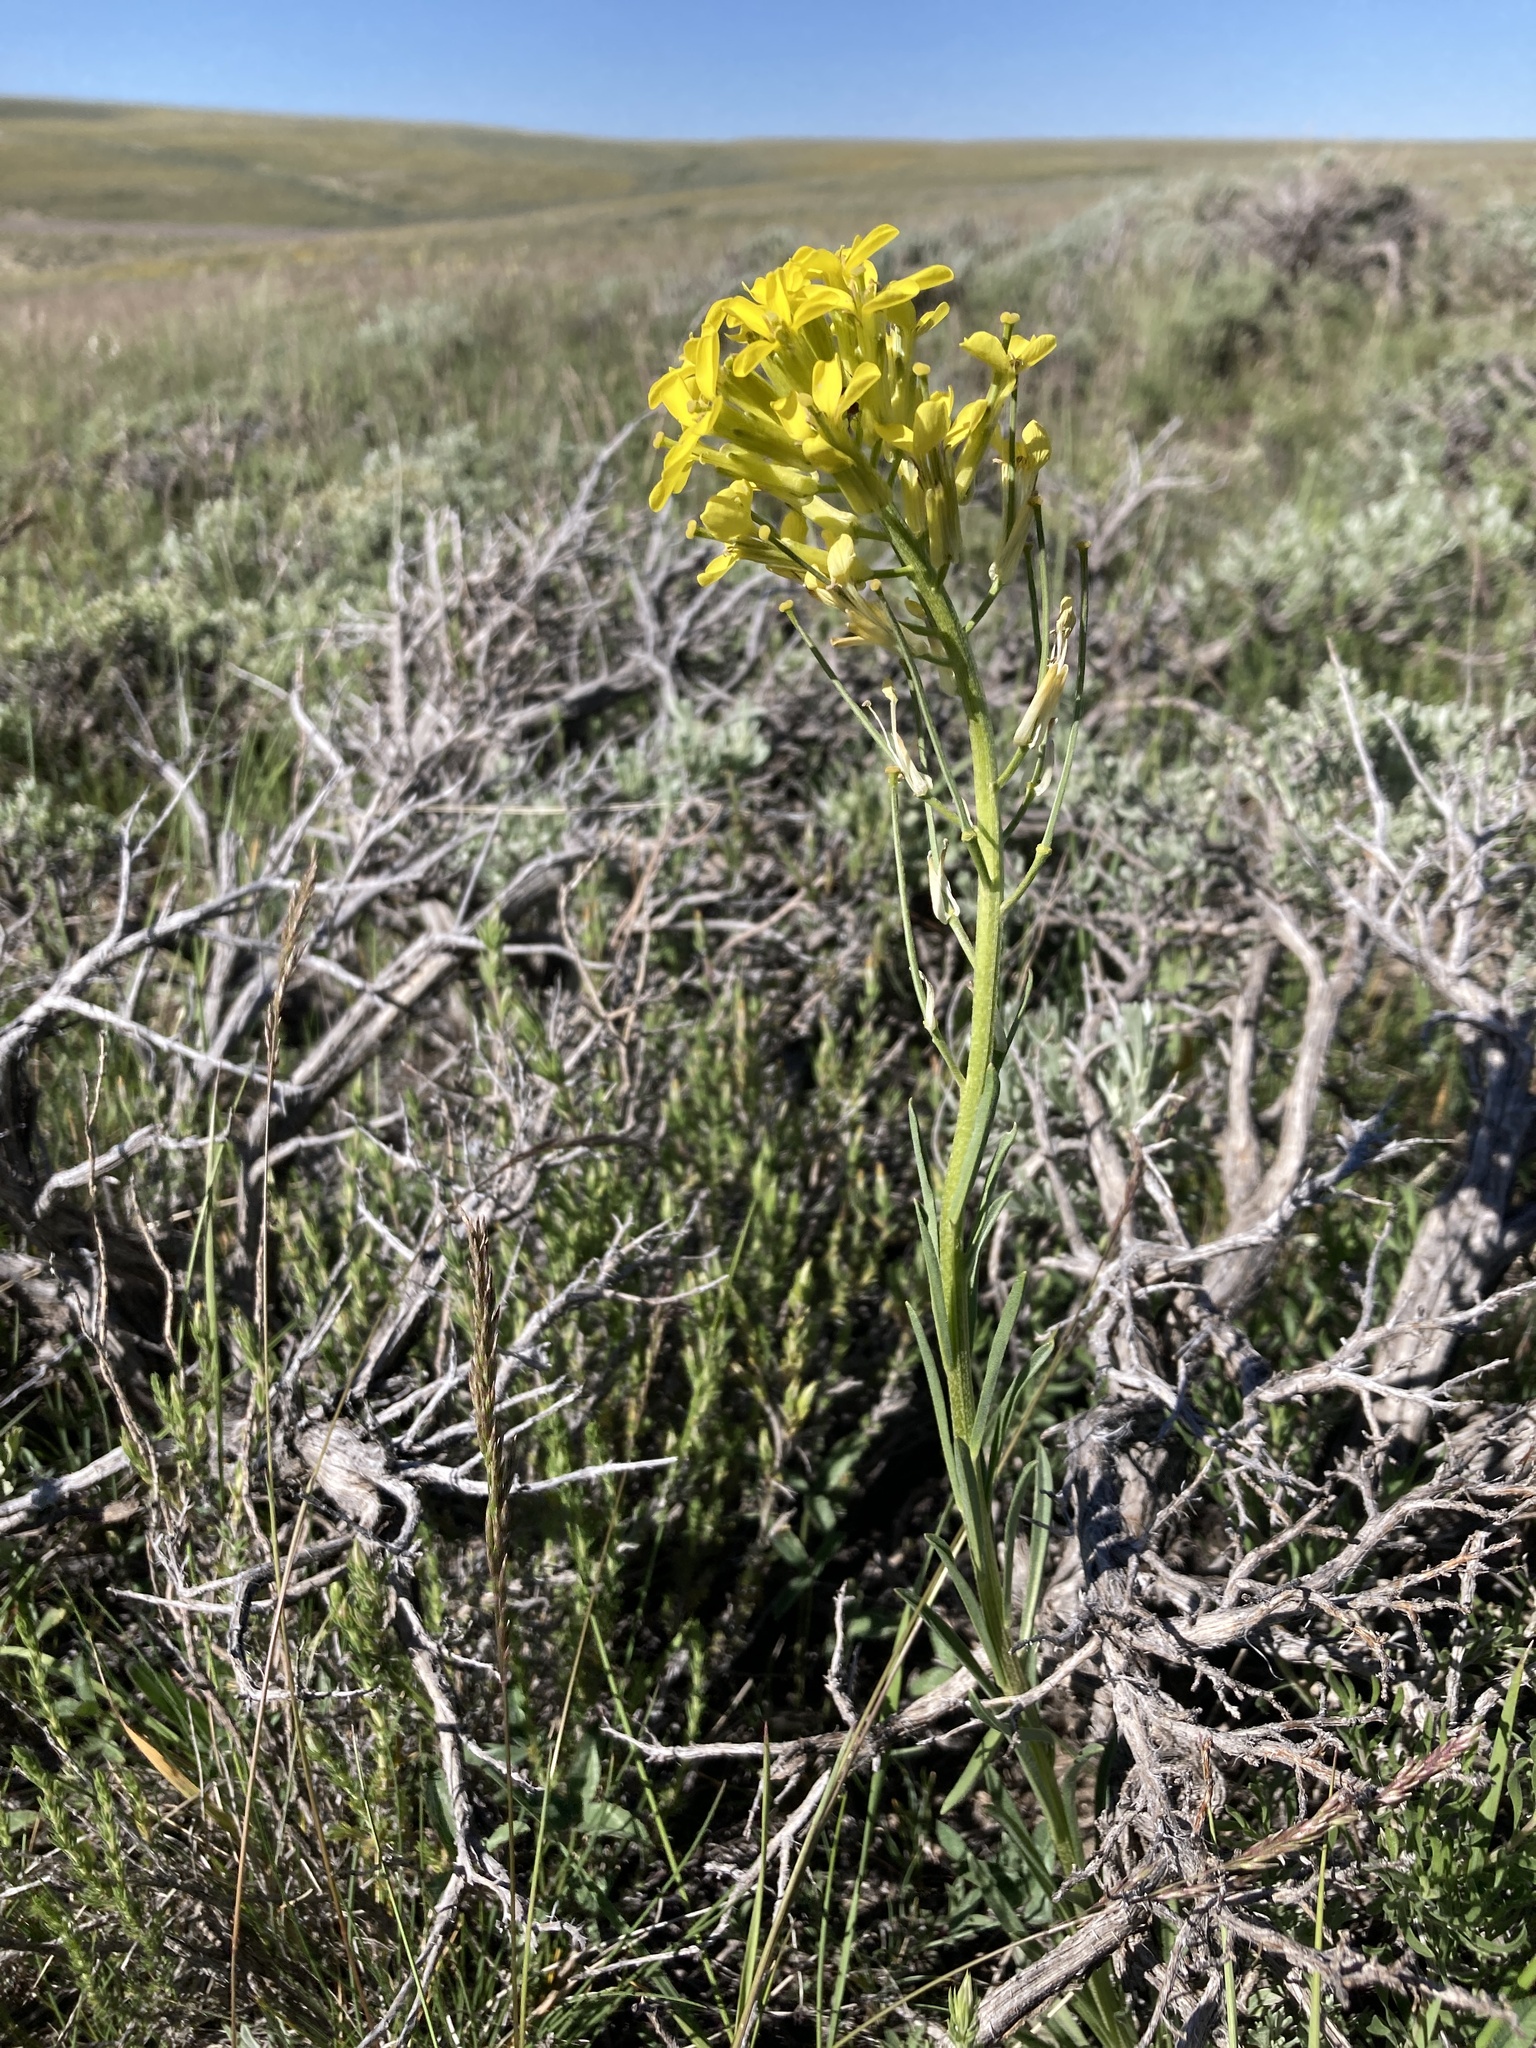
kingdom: Plantae
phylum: Tracheophyta
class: Magnoliopsida
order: Brassicales
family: Brassicaceae
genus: Erysimum
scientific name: Erysimum capitatum
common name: Western wallflower
